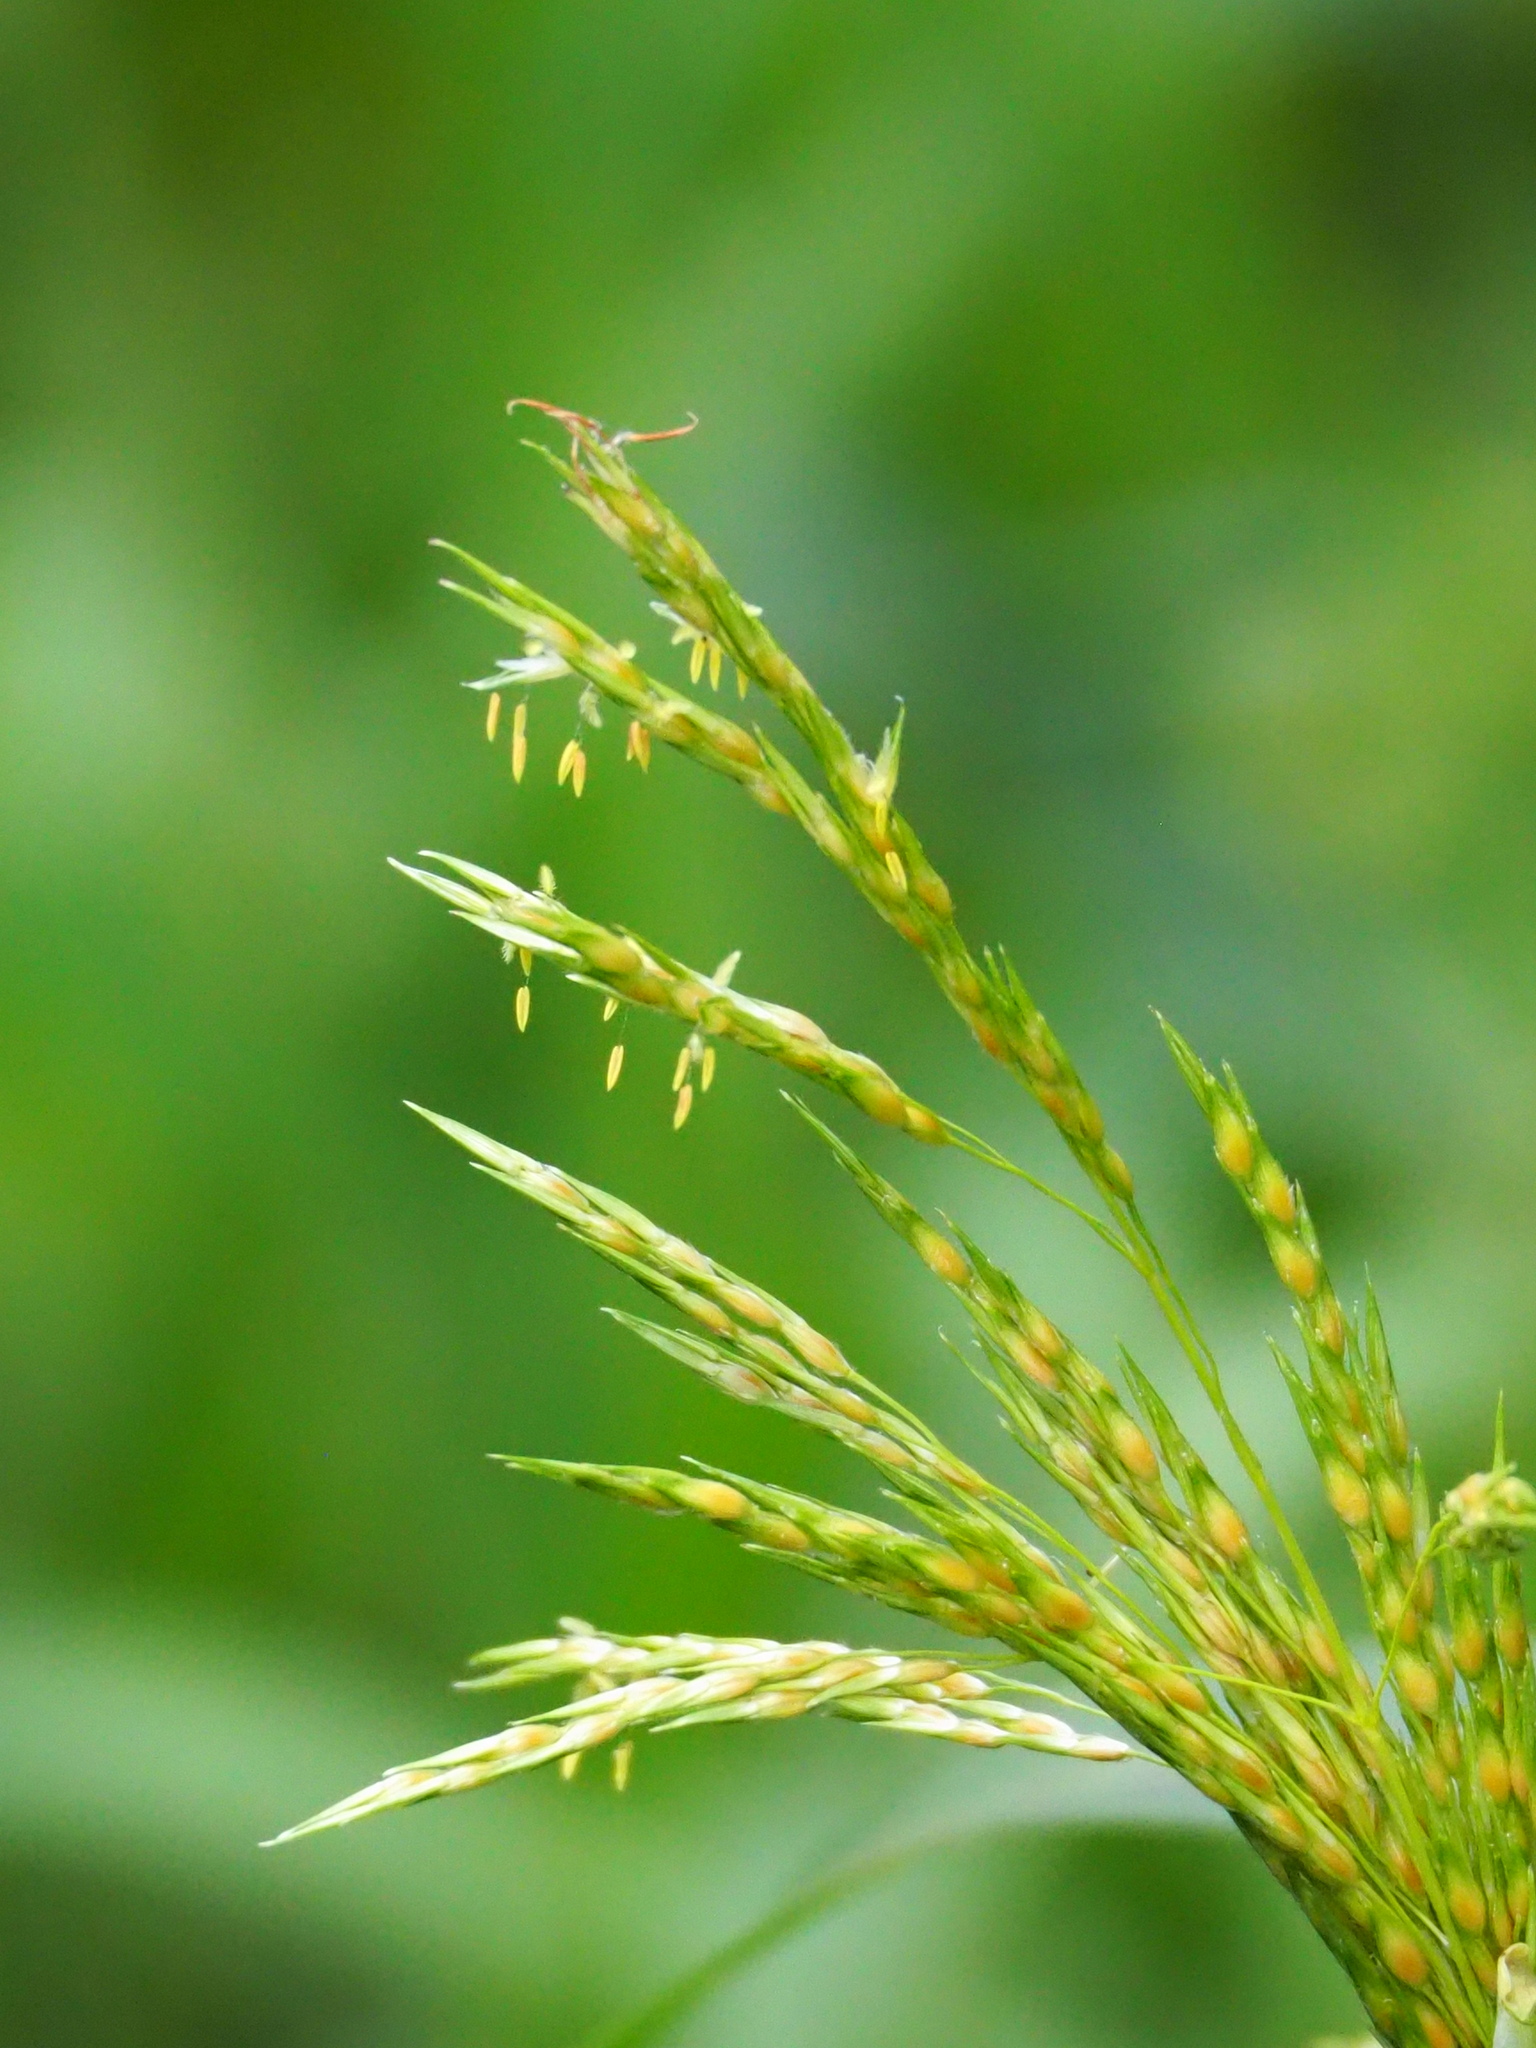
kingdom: Plantae
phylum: Tracheophyta
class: Liliopsida
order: Poales
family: Poaceae
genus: Sorghum
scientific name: Sorghum arundinaceum
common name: Sorghum
